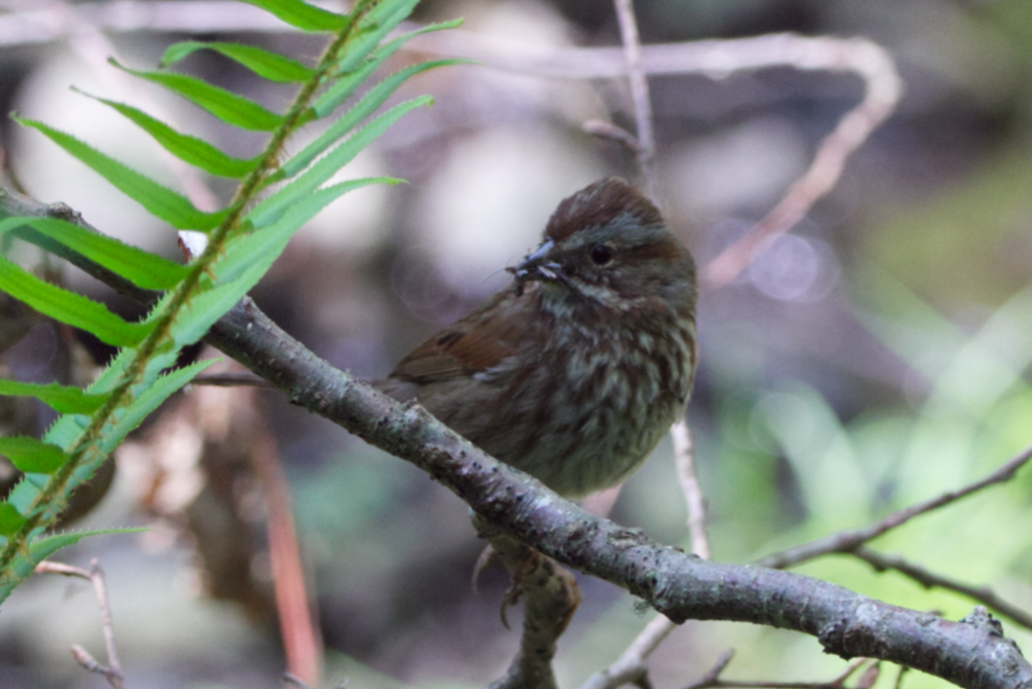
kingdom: Animalia
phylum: Chordata
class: Aves
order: Passeriformes
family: Passerellidae
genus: Melospiza
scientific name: Melospiza melodia
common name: Song sparrow
